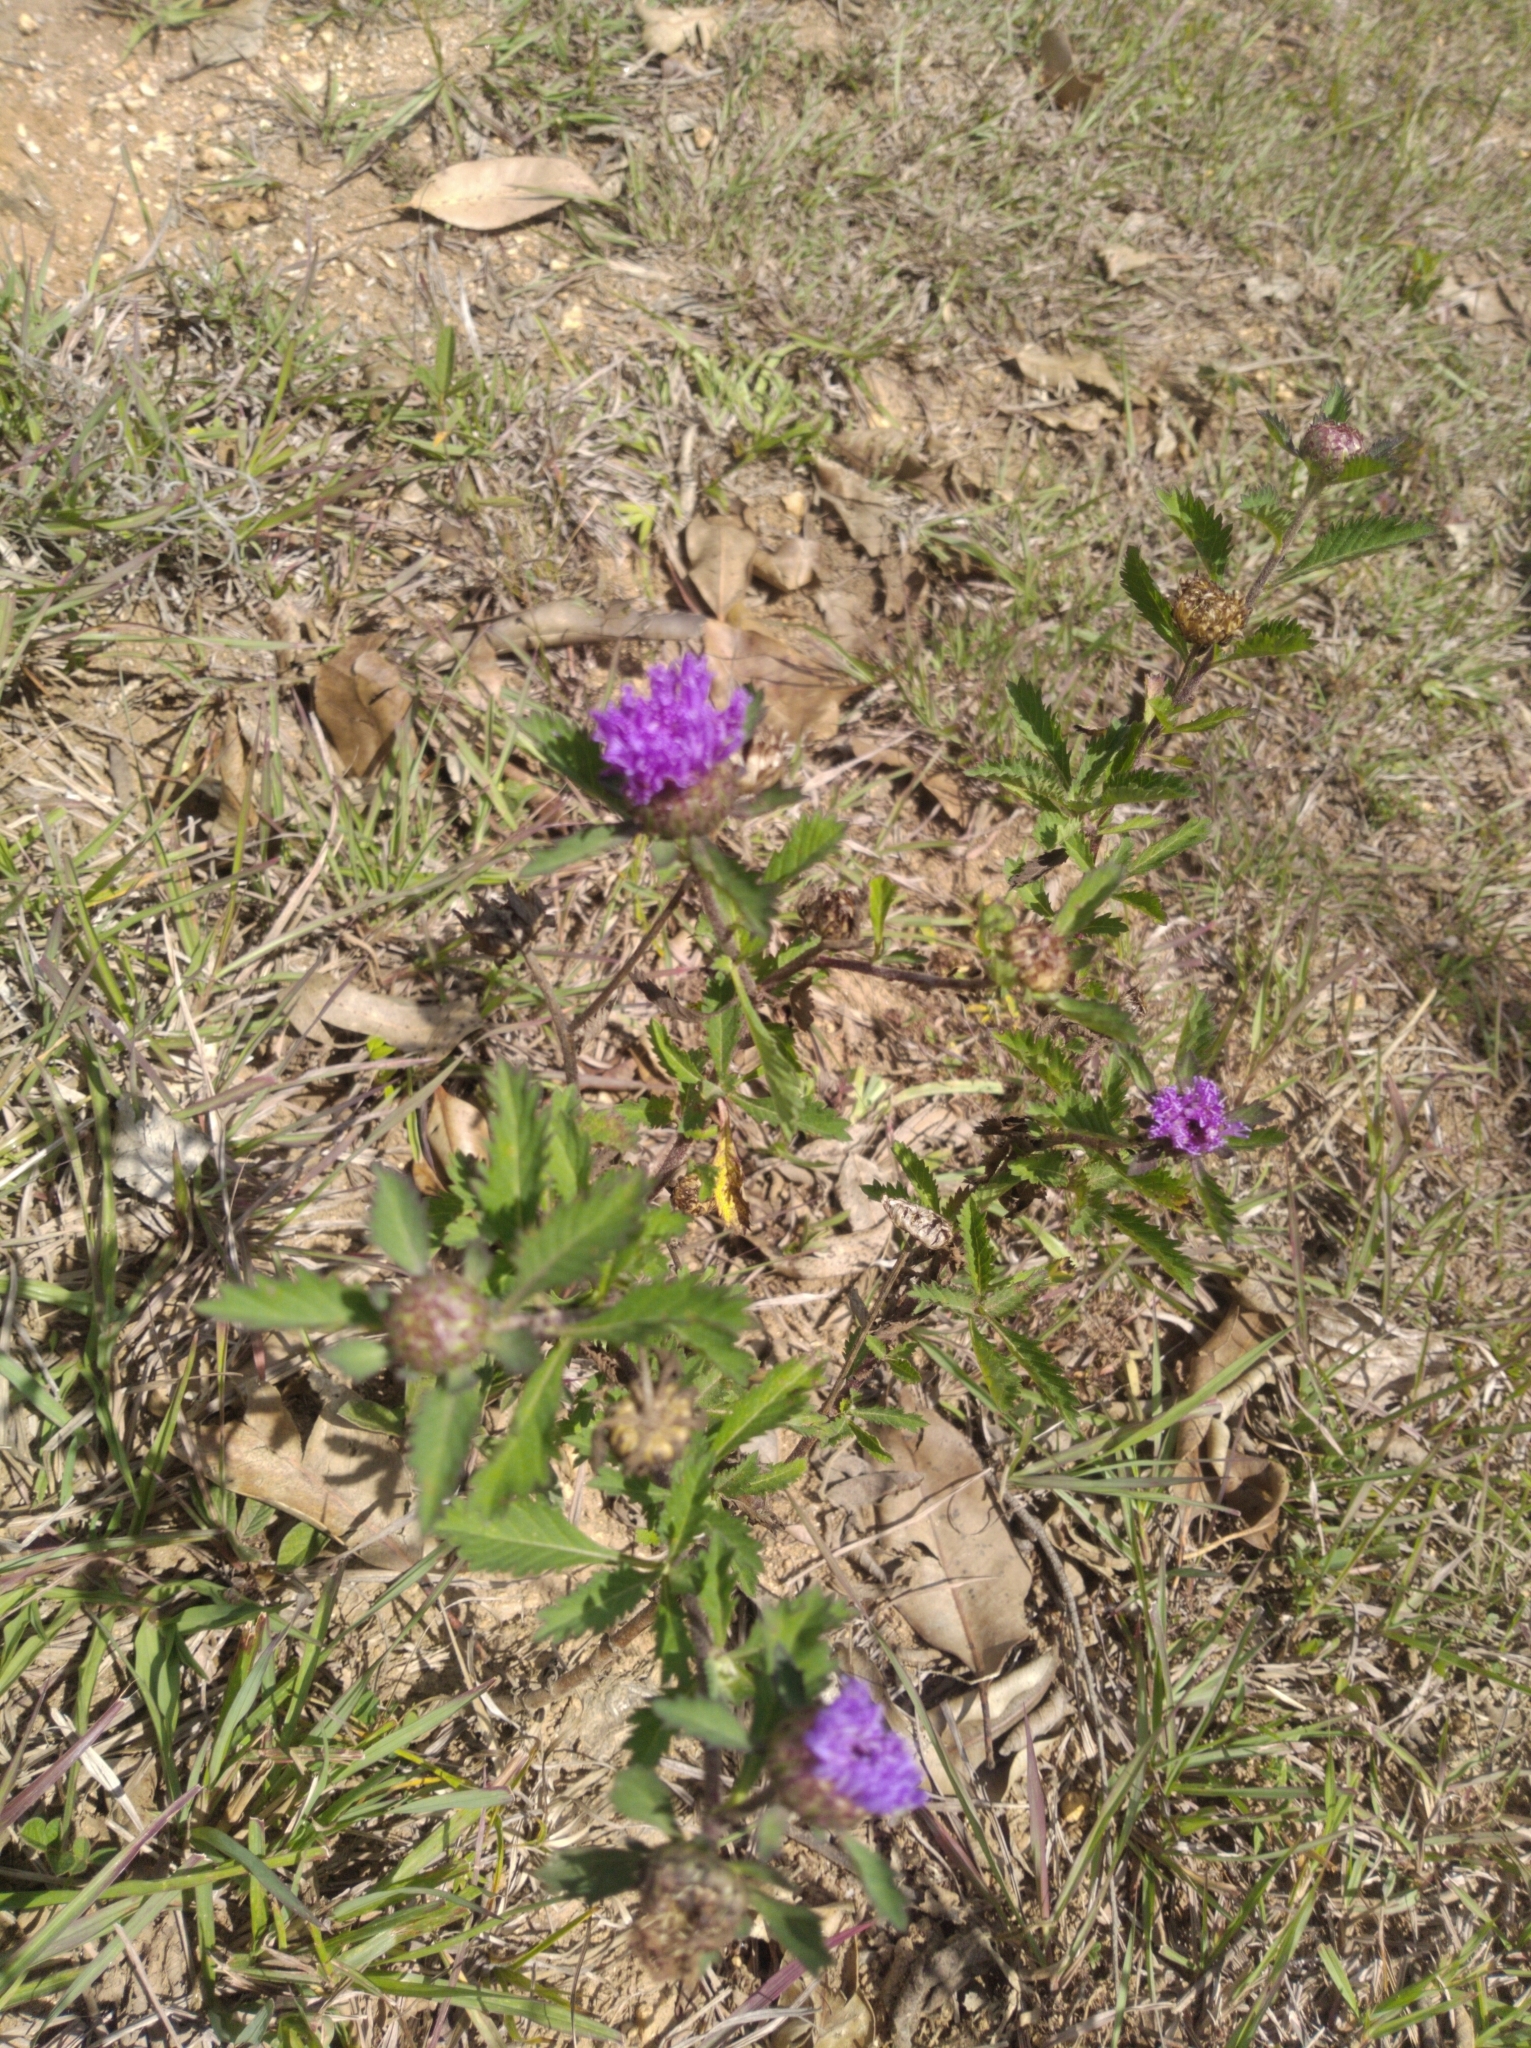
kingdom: Plantae
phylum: Tracheophyta
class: Magnoliopsida
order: Asterales
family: Asteraceae
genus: Centratherum
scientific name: Centratherum punctatum
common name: Larkdaisy
